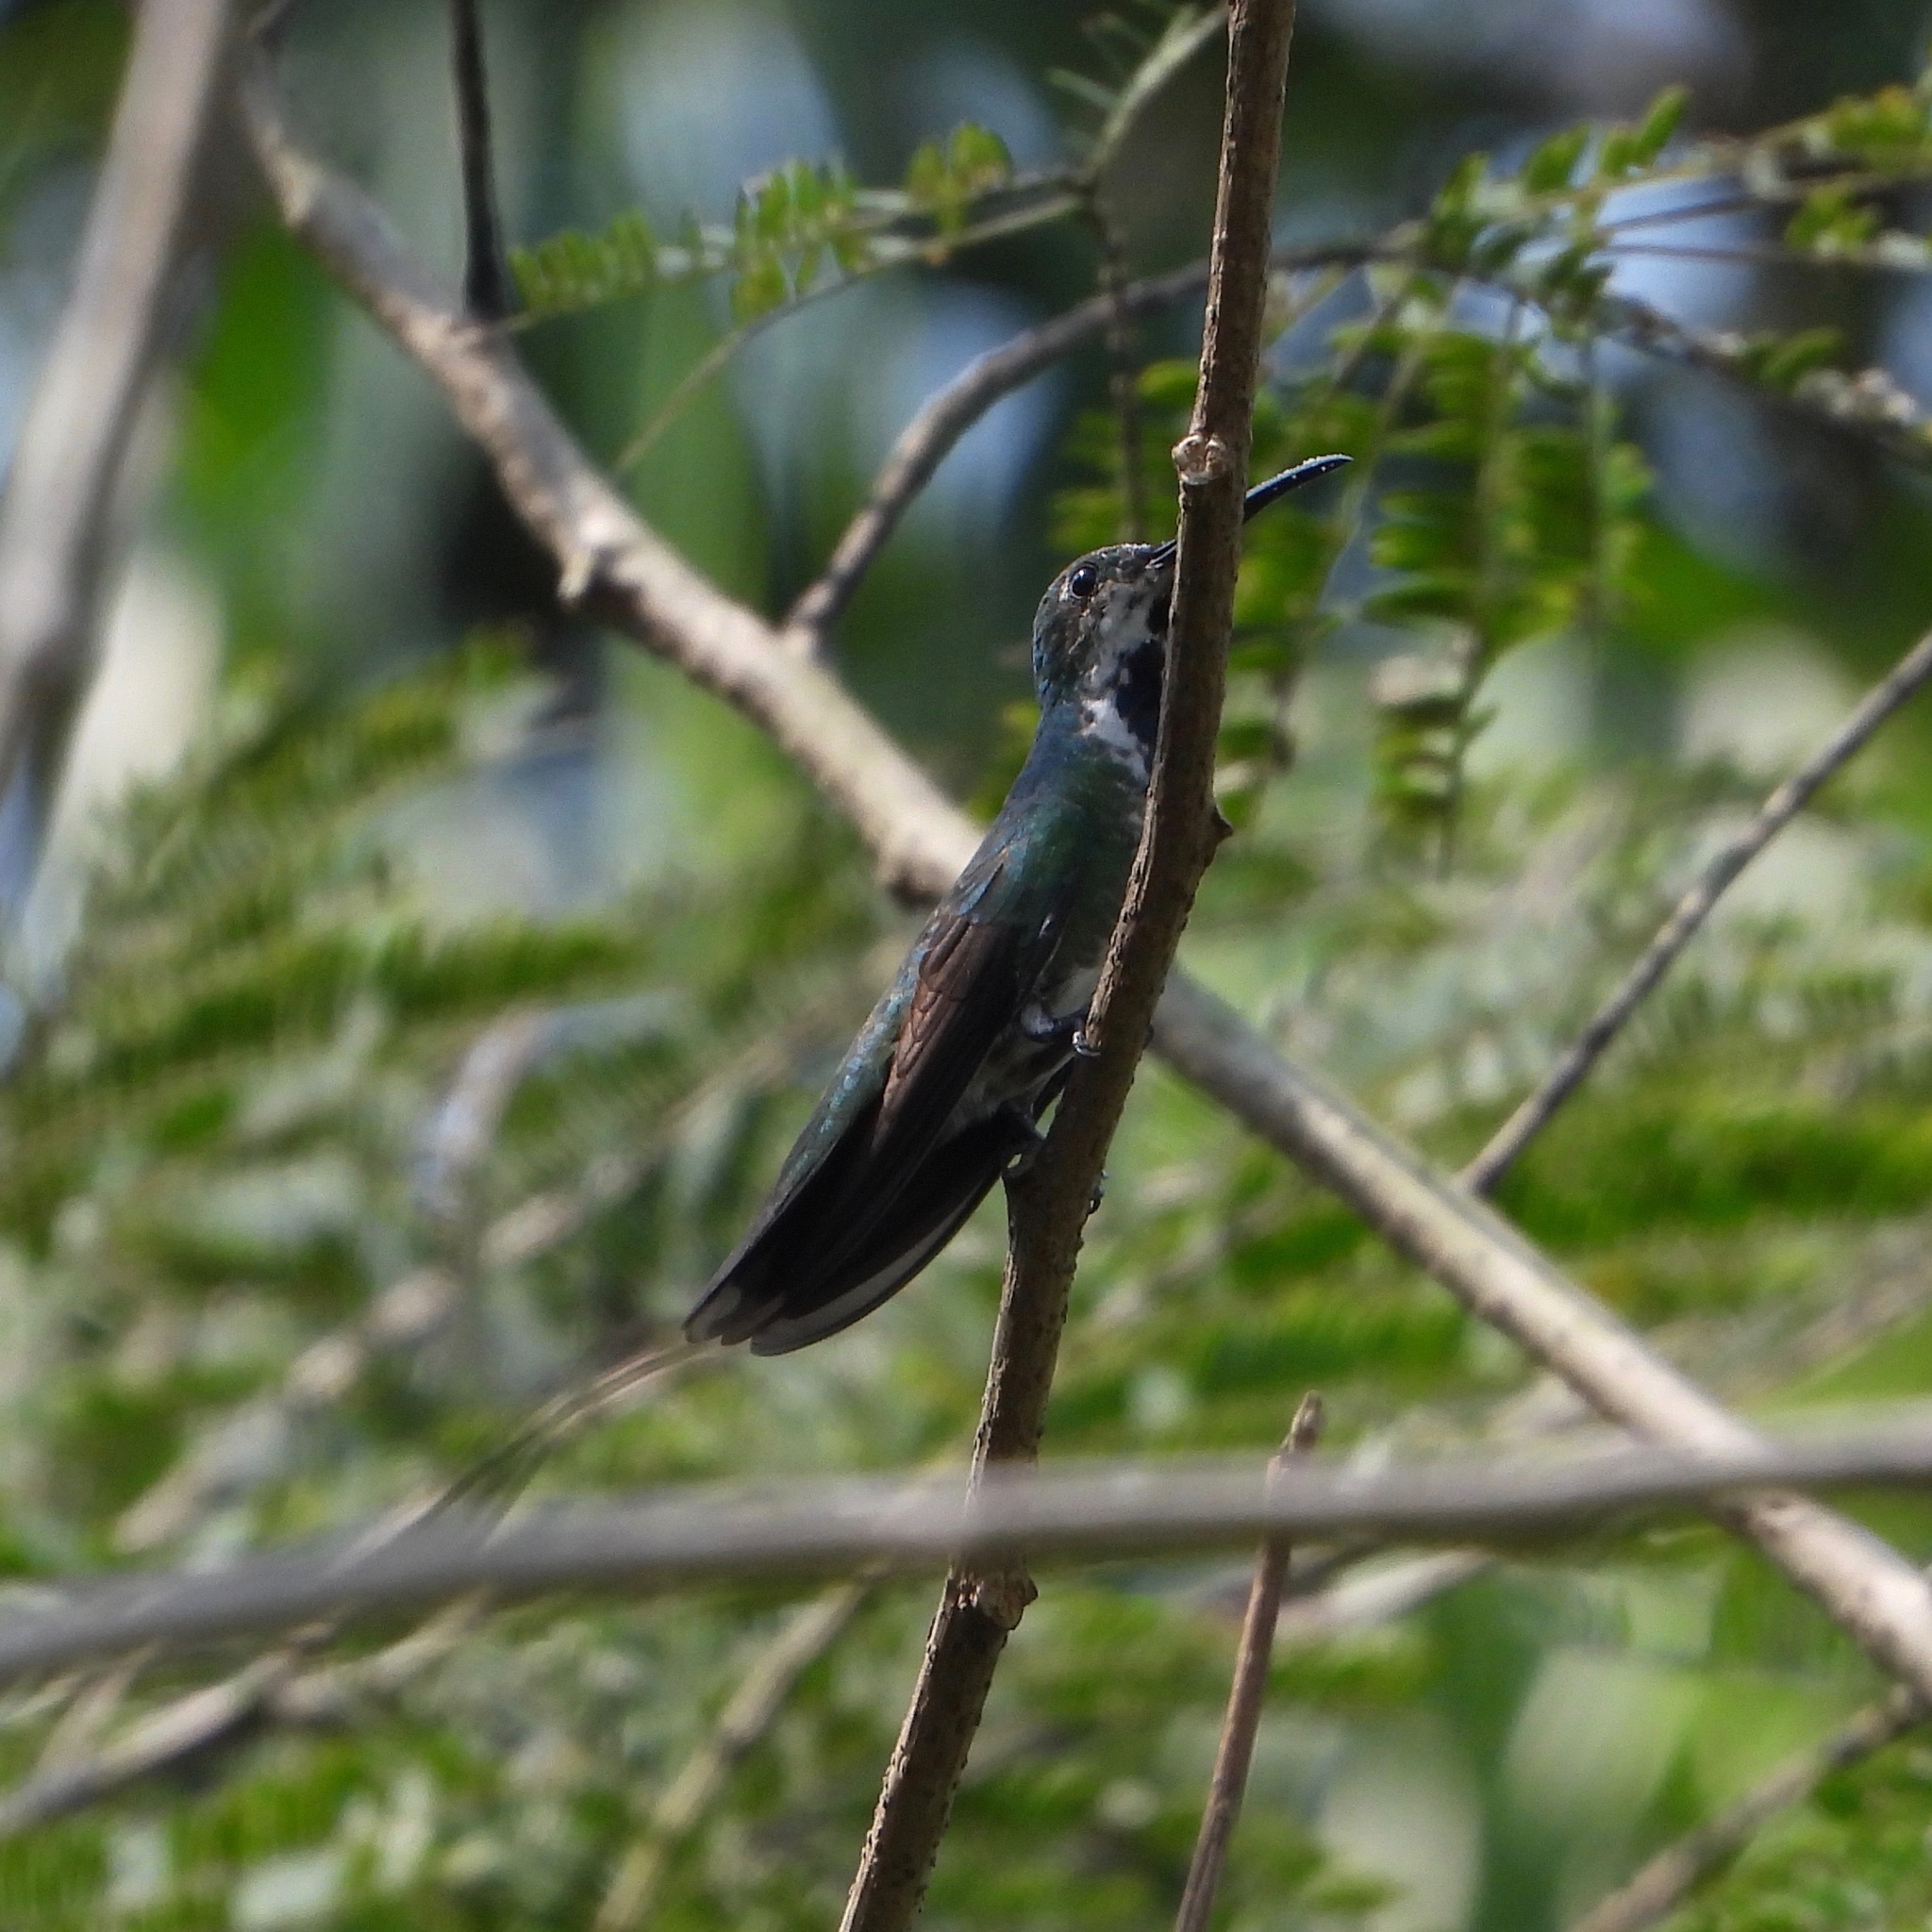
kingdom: Animalia
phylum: Chordata
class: Aves
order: Apodiformes
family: Trochilidae
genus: Anthracothorax
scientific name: Anthracothorax prevostii
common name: Green-breasted mango
